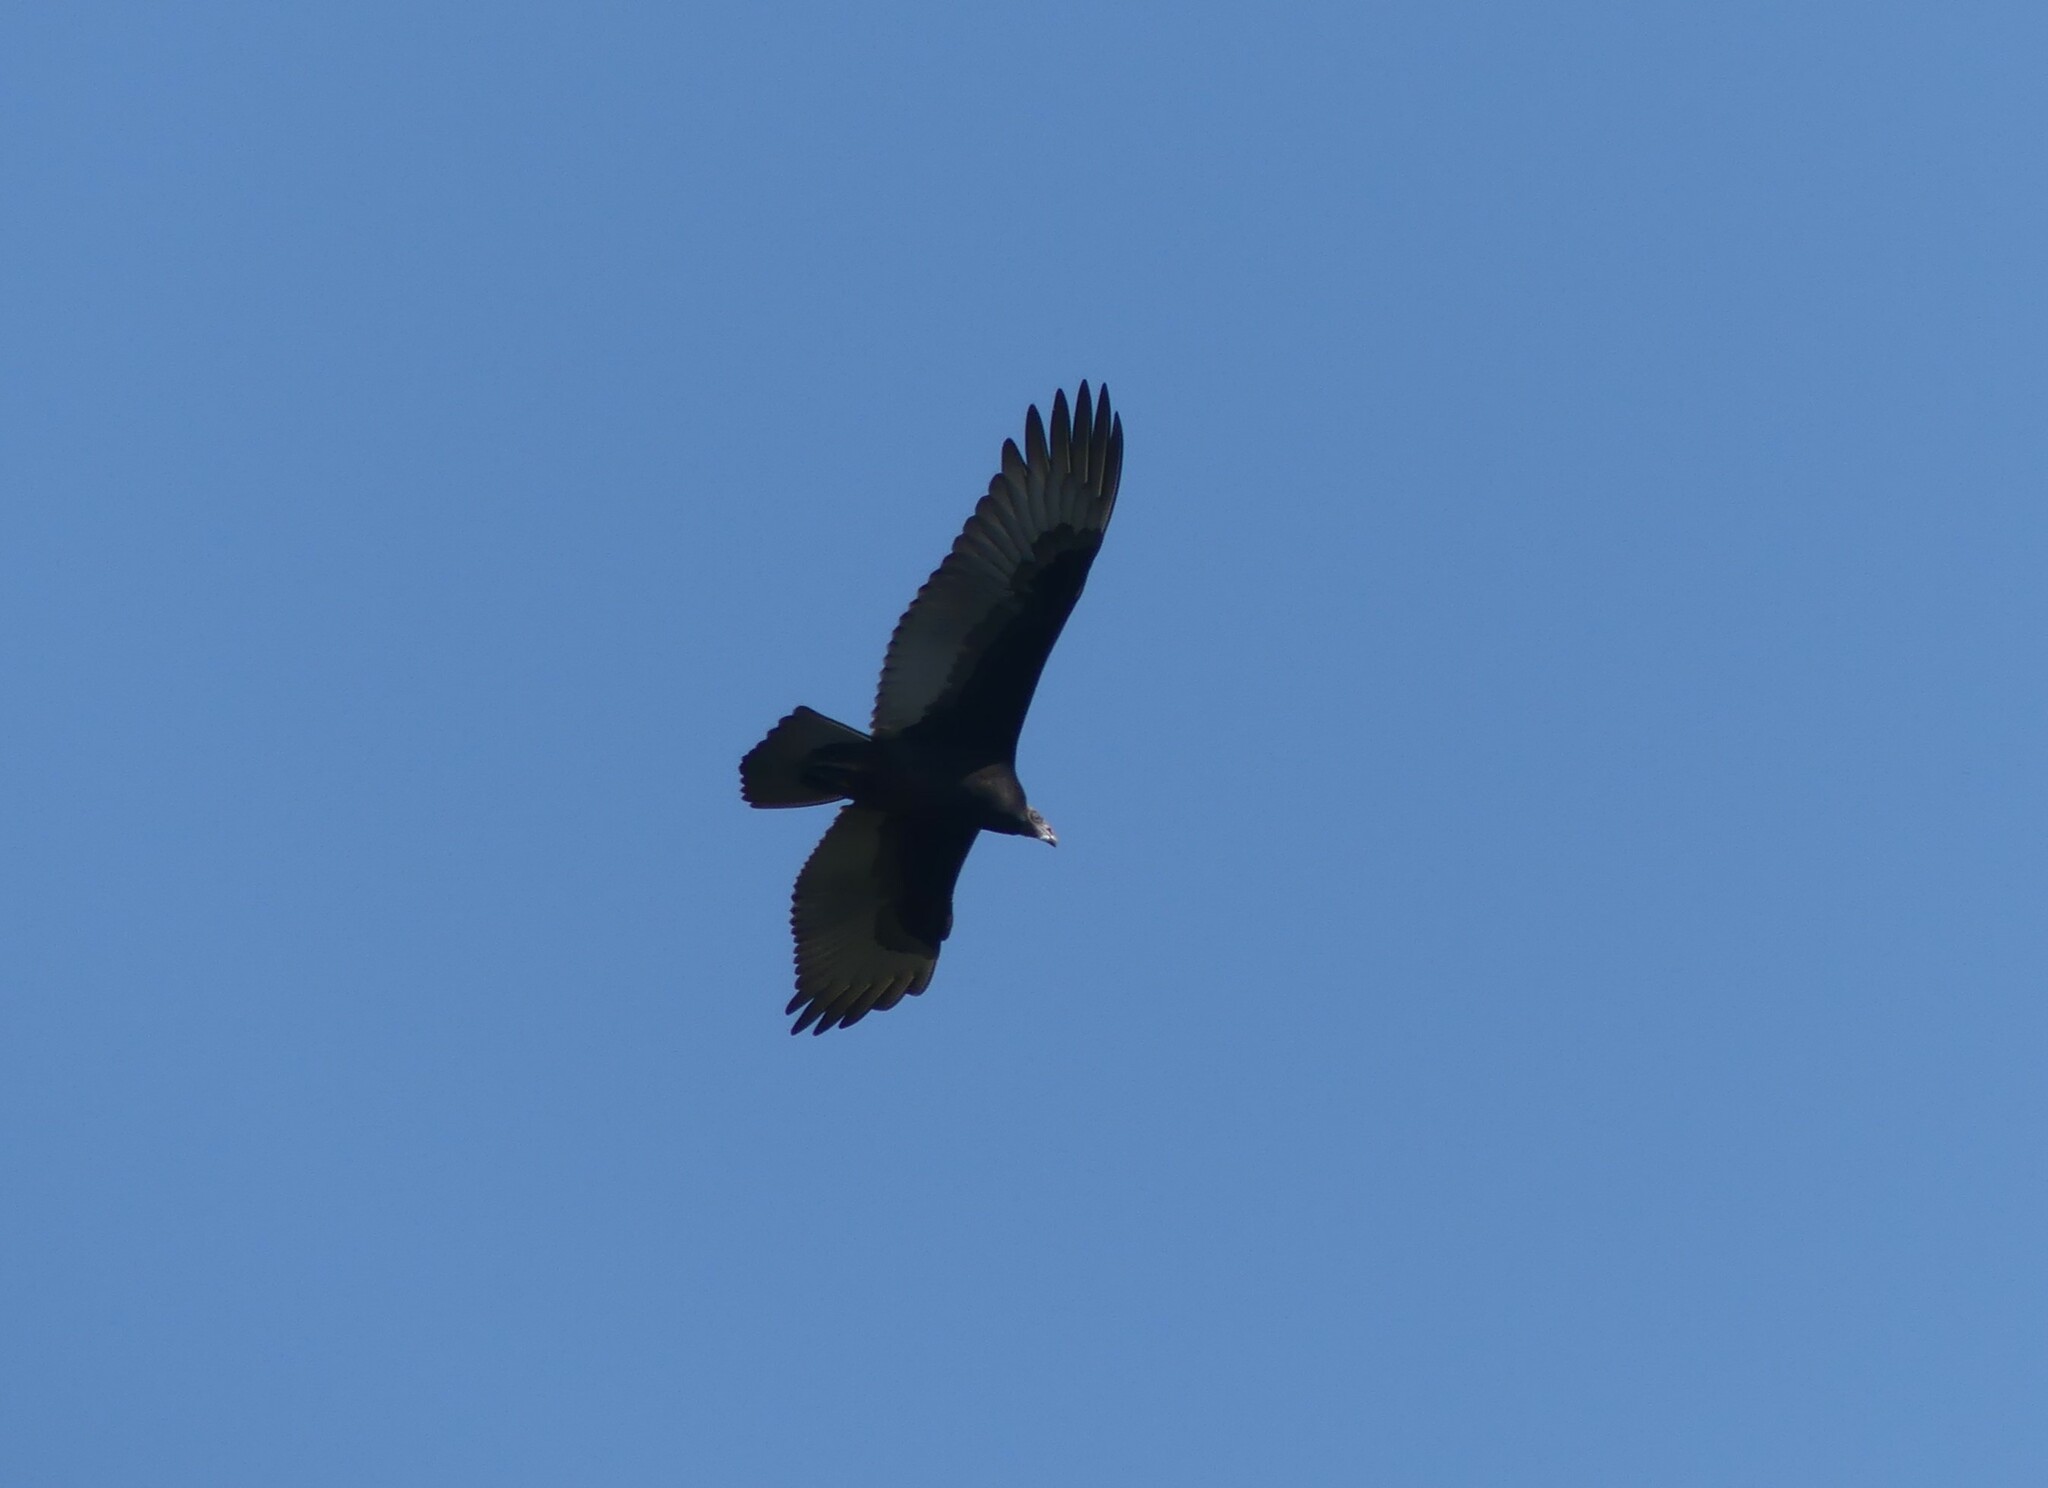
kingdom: Animalia
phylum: Chordata
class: Aves
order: Accipitriformes
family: Cathartidae
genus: Cathartes
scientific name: Cathartes aura
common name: Turkey vulture
